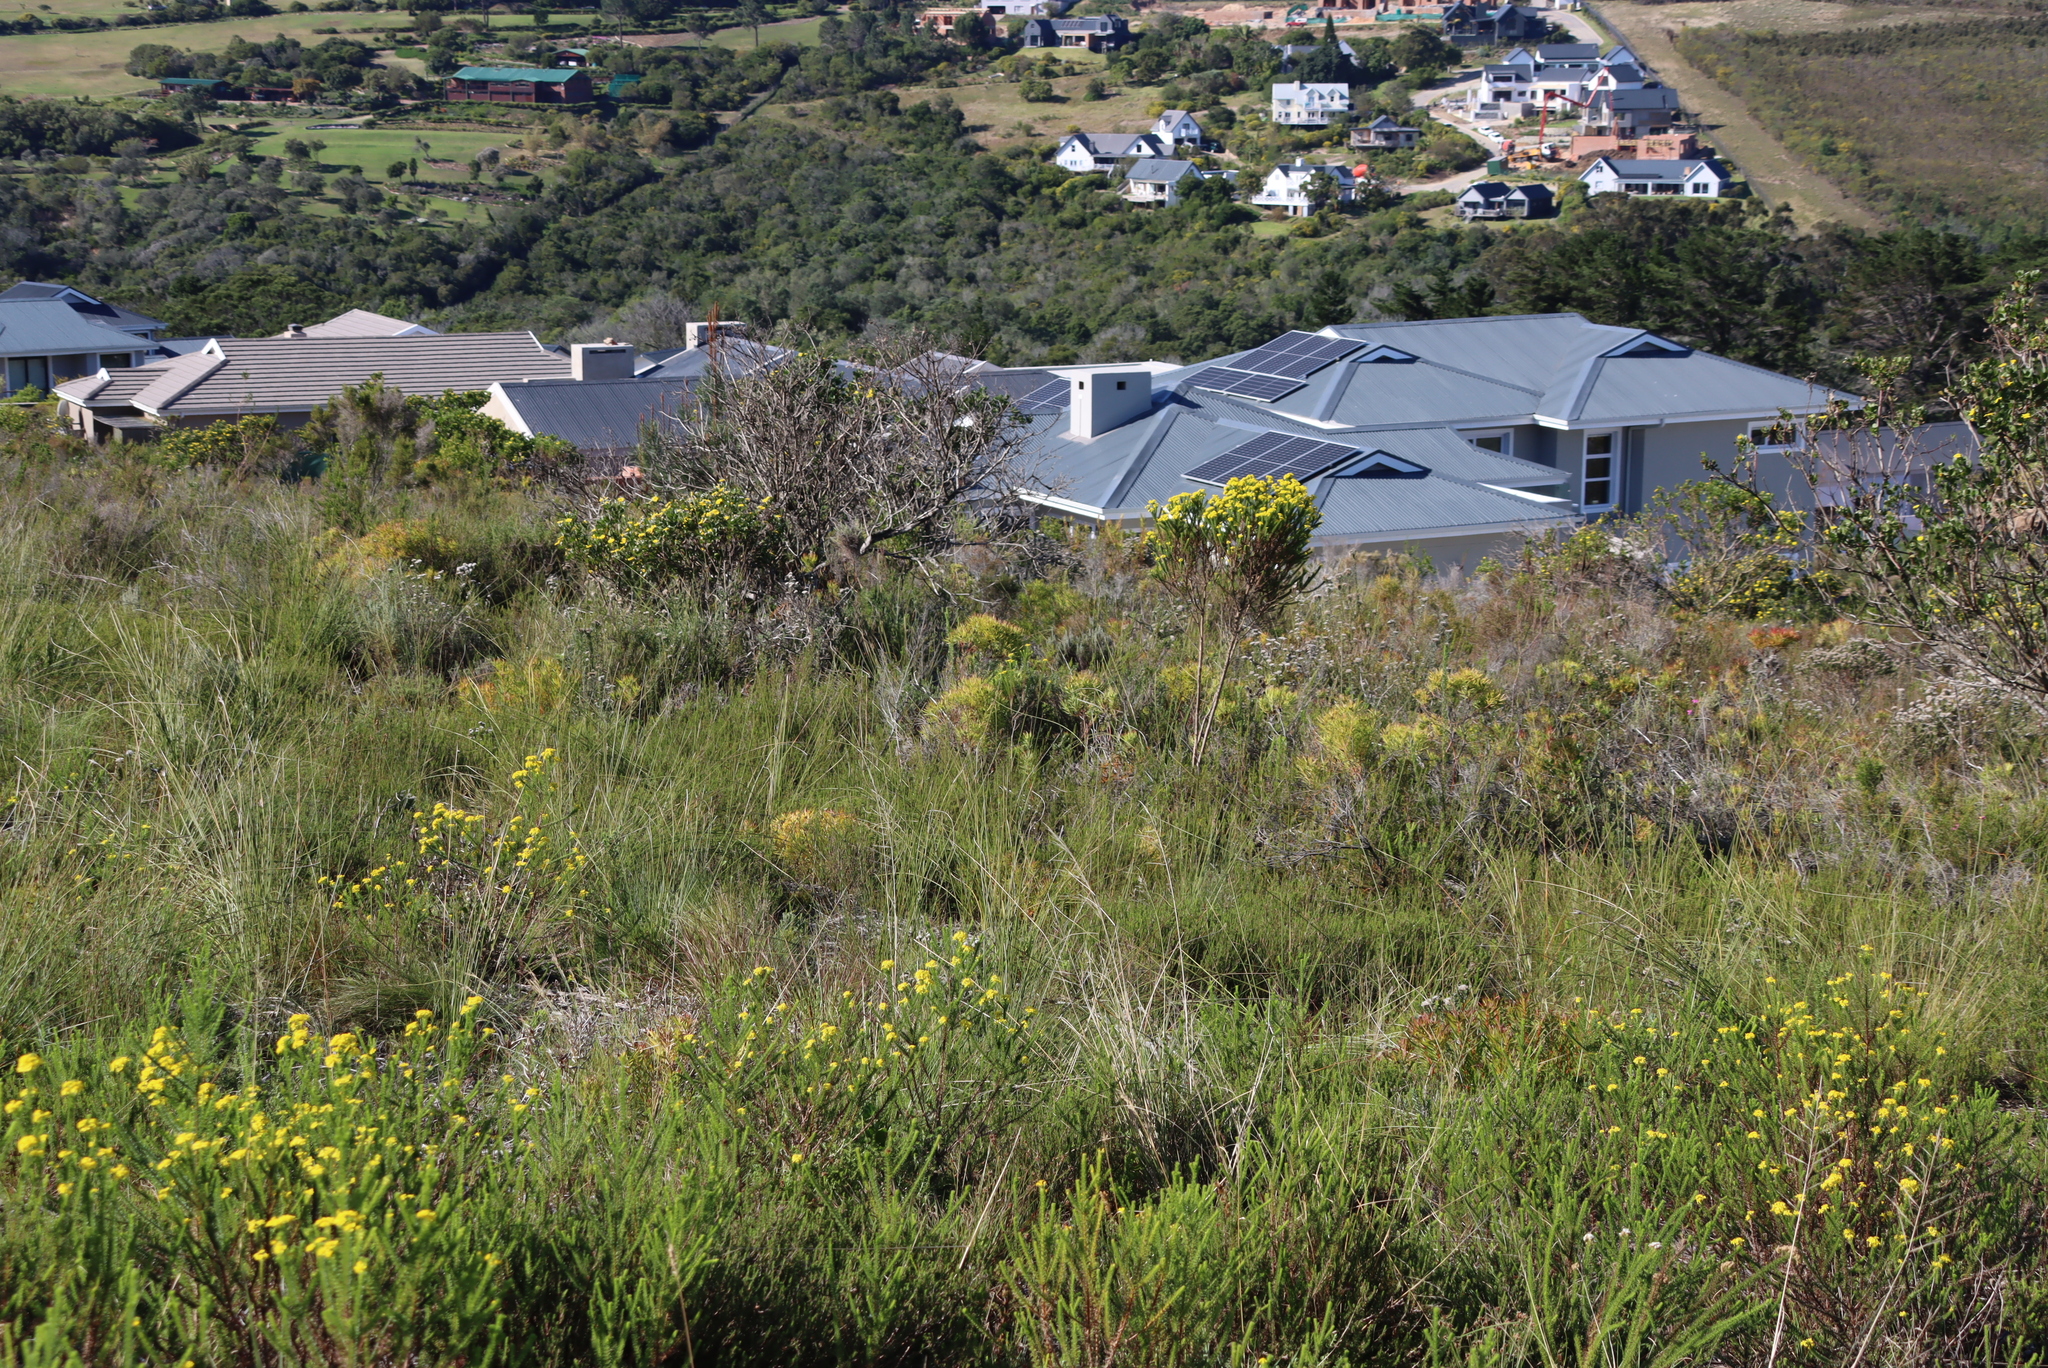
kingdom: Plantae
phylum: Tracheophyta
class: Magnoliopsida
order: Proteales
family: Proteaceae
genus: Leucadendron
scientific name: Leucadendron salignum
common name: Common sunshine conebush
